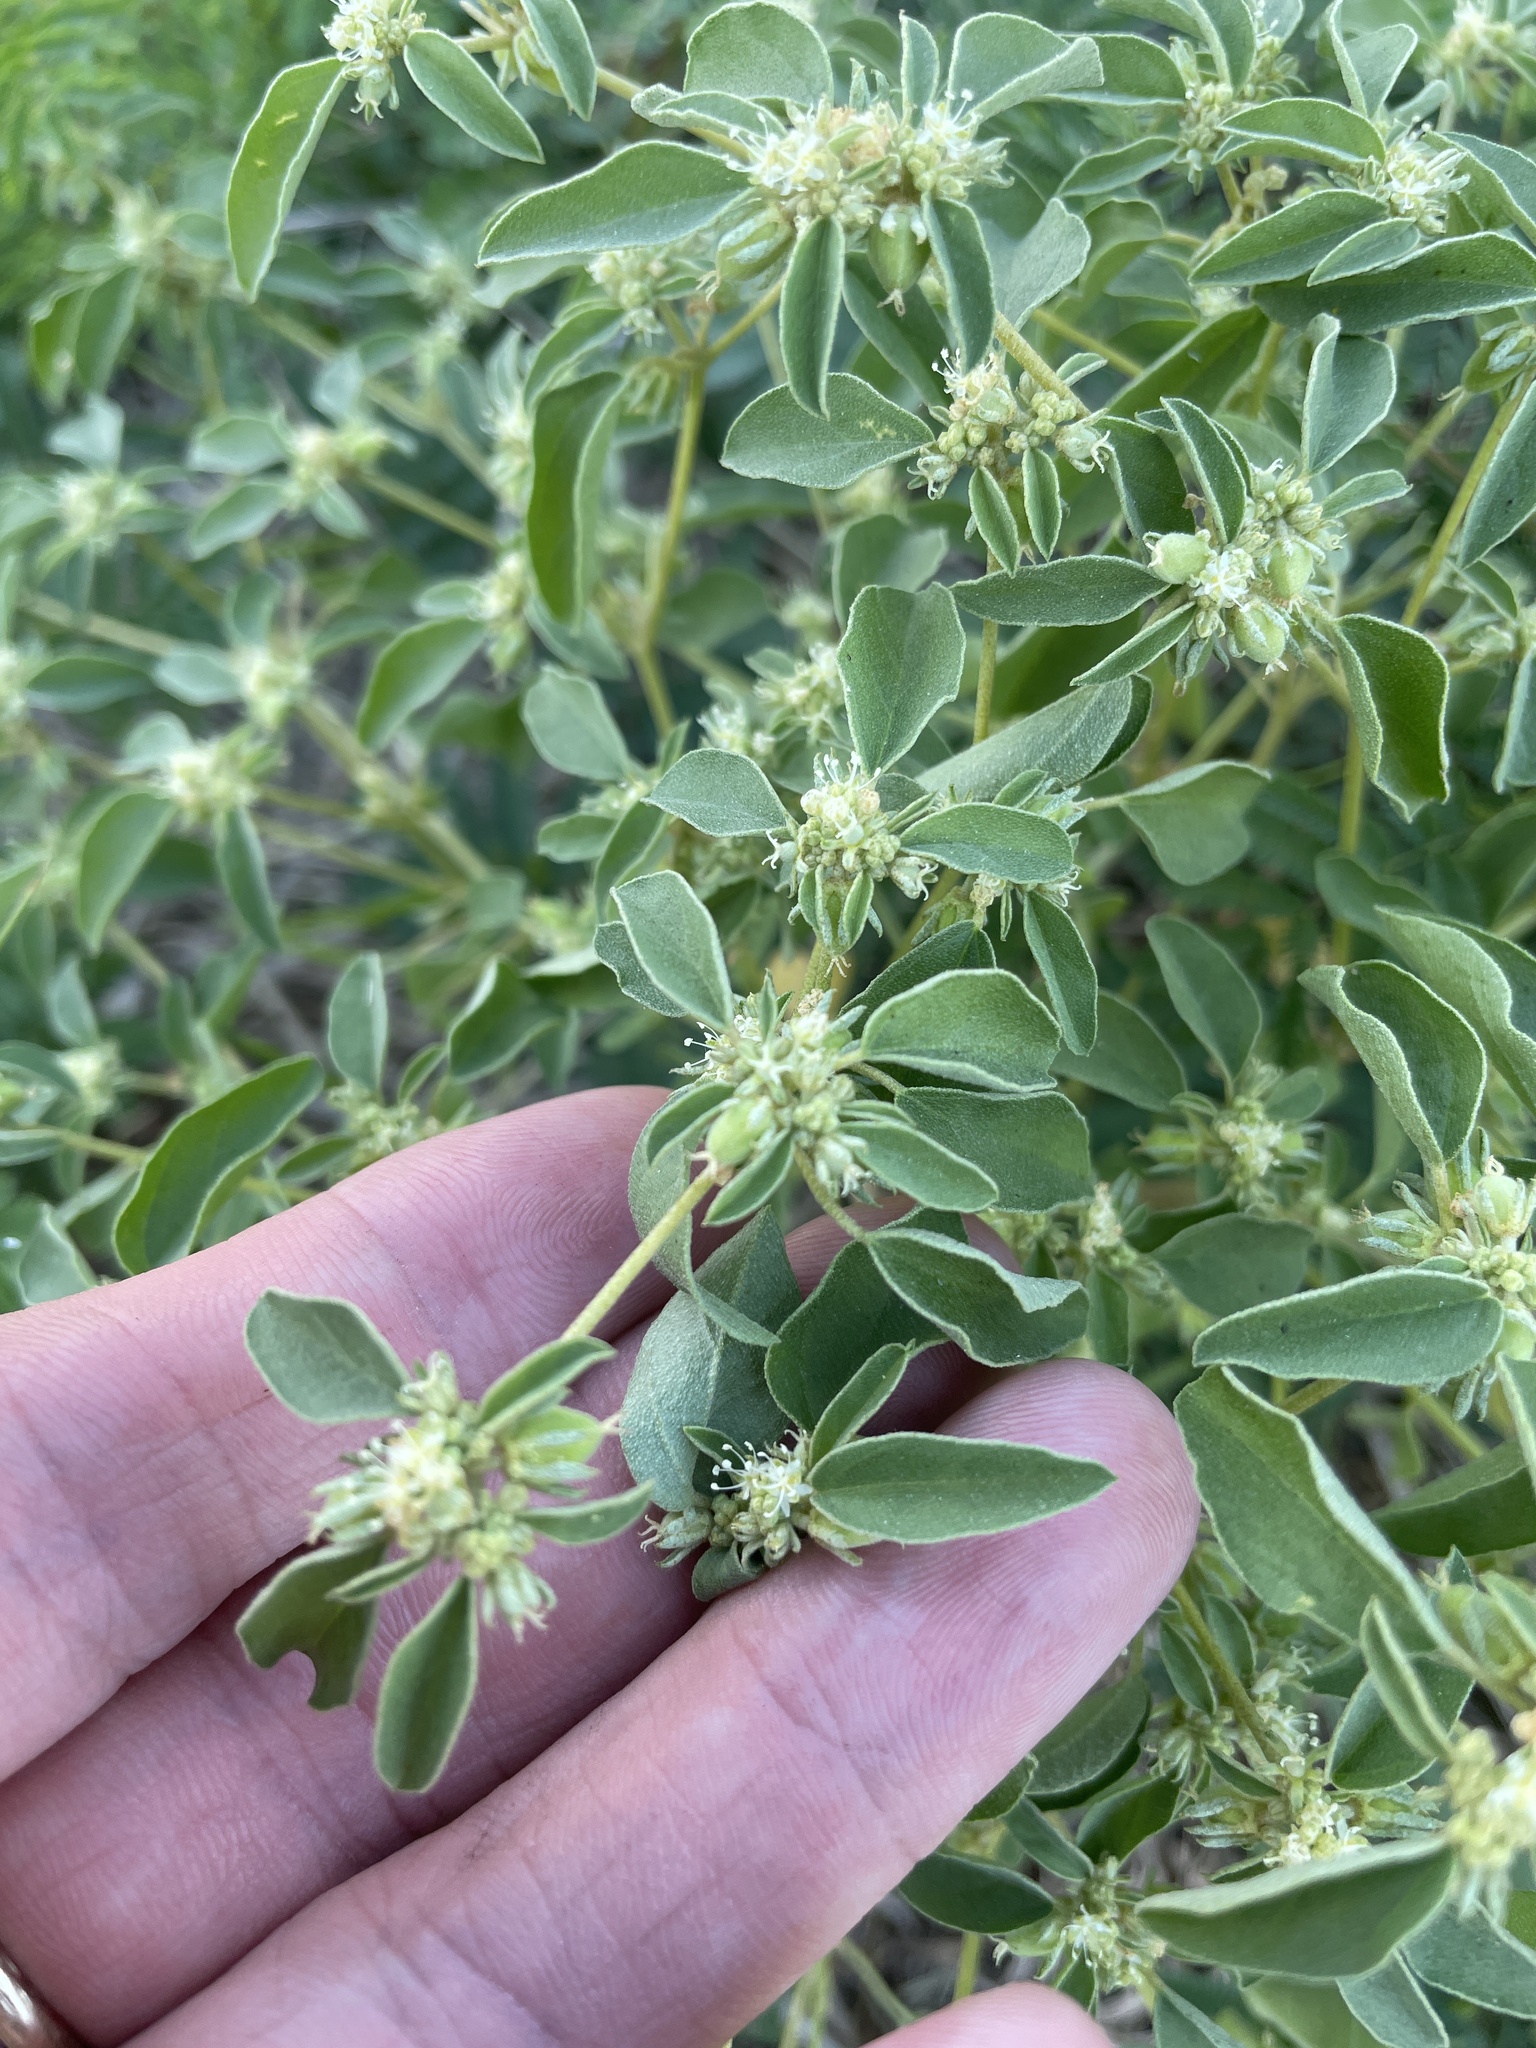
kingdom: Plantae
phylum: Tracheophyta
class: Magnoliopsida
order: Malpighiales
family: Euphorbiaceae
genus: Croton
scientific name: Croton monanthogynus
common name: One-seed croton
